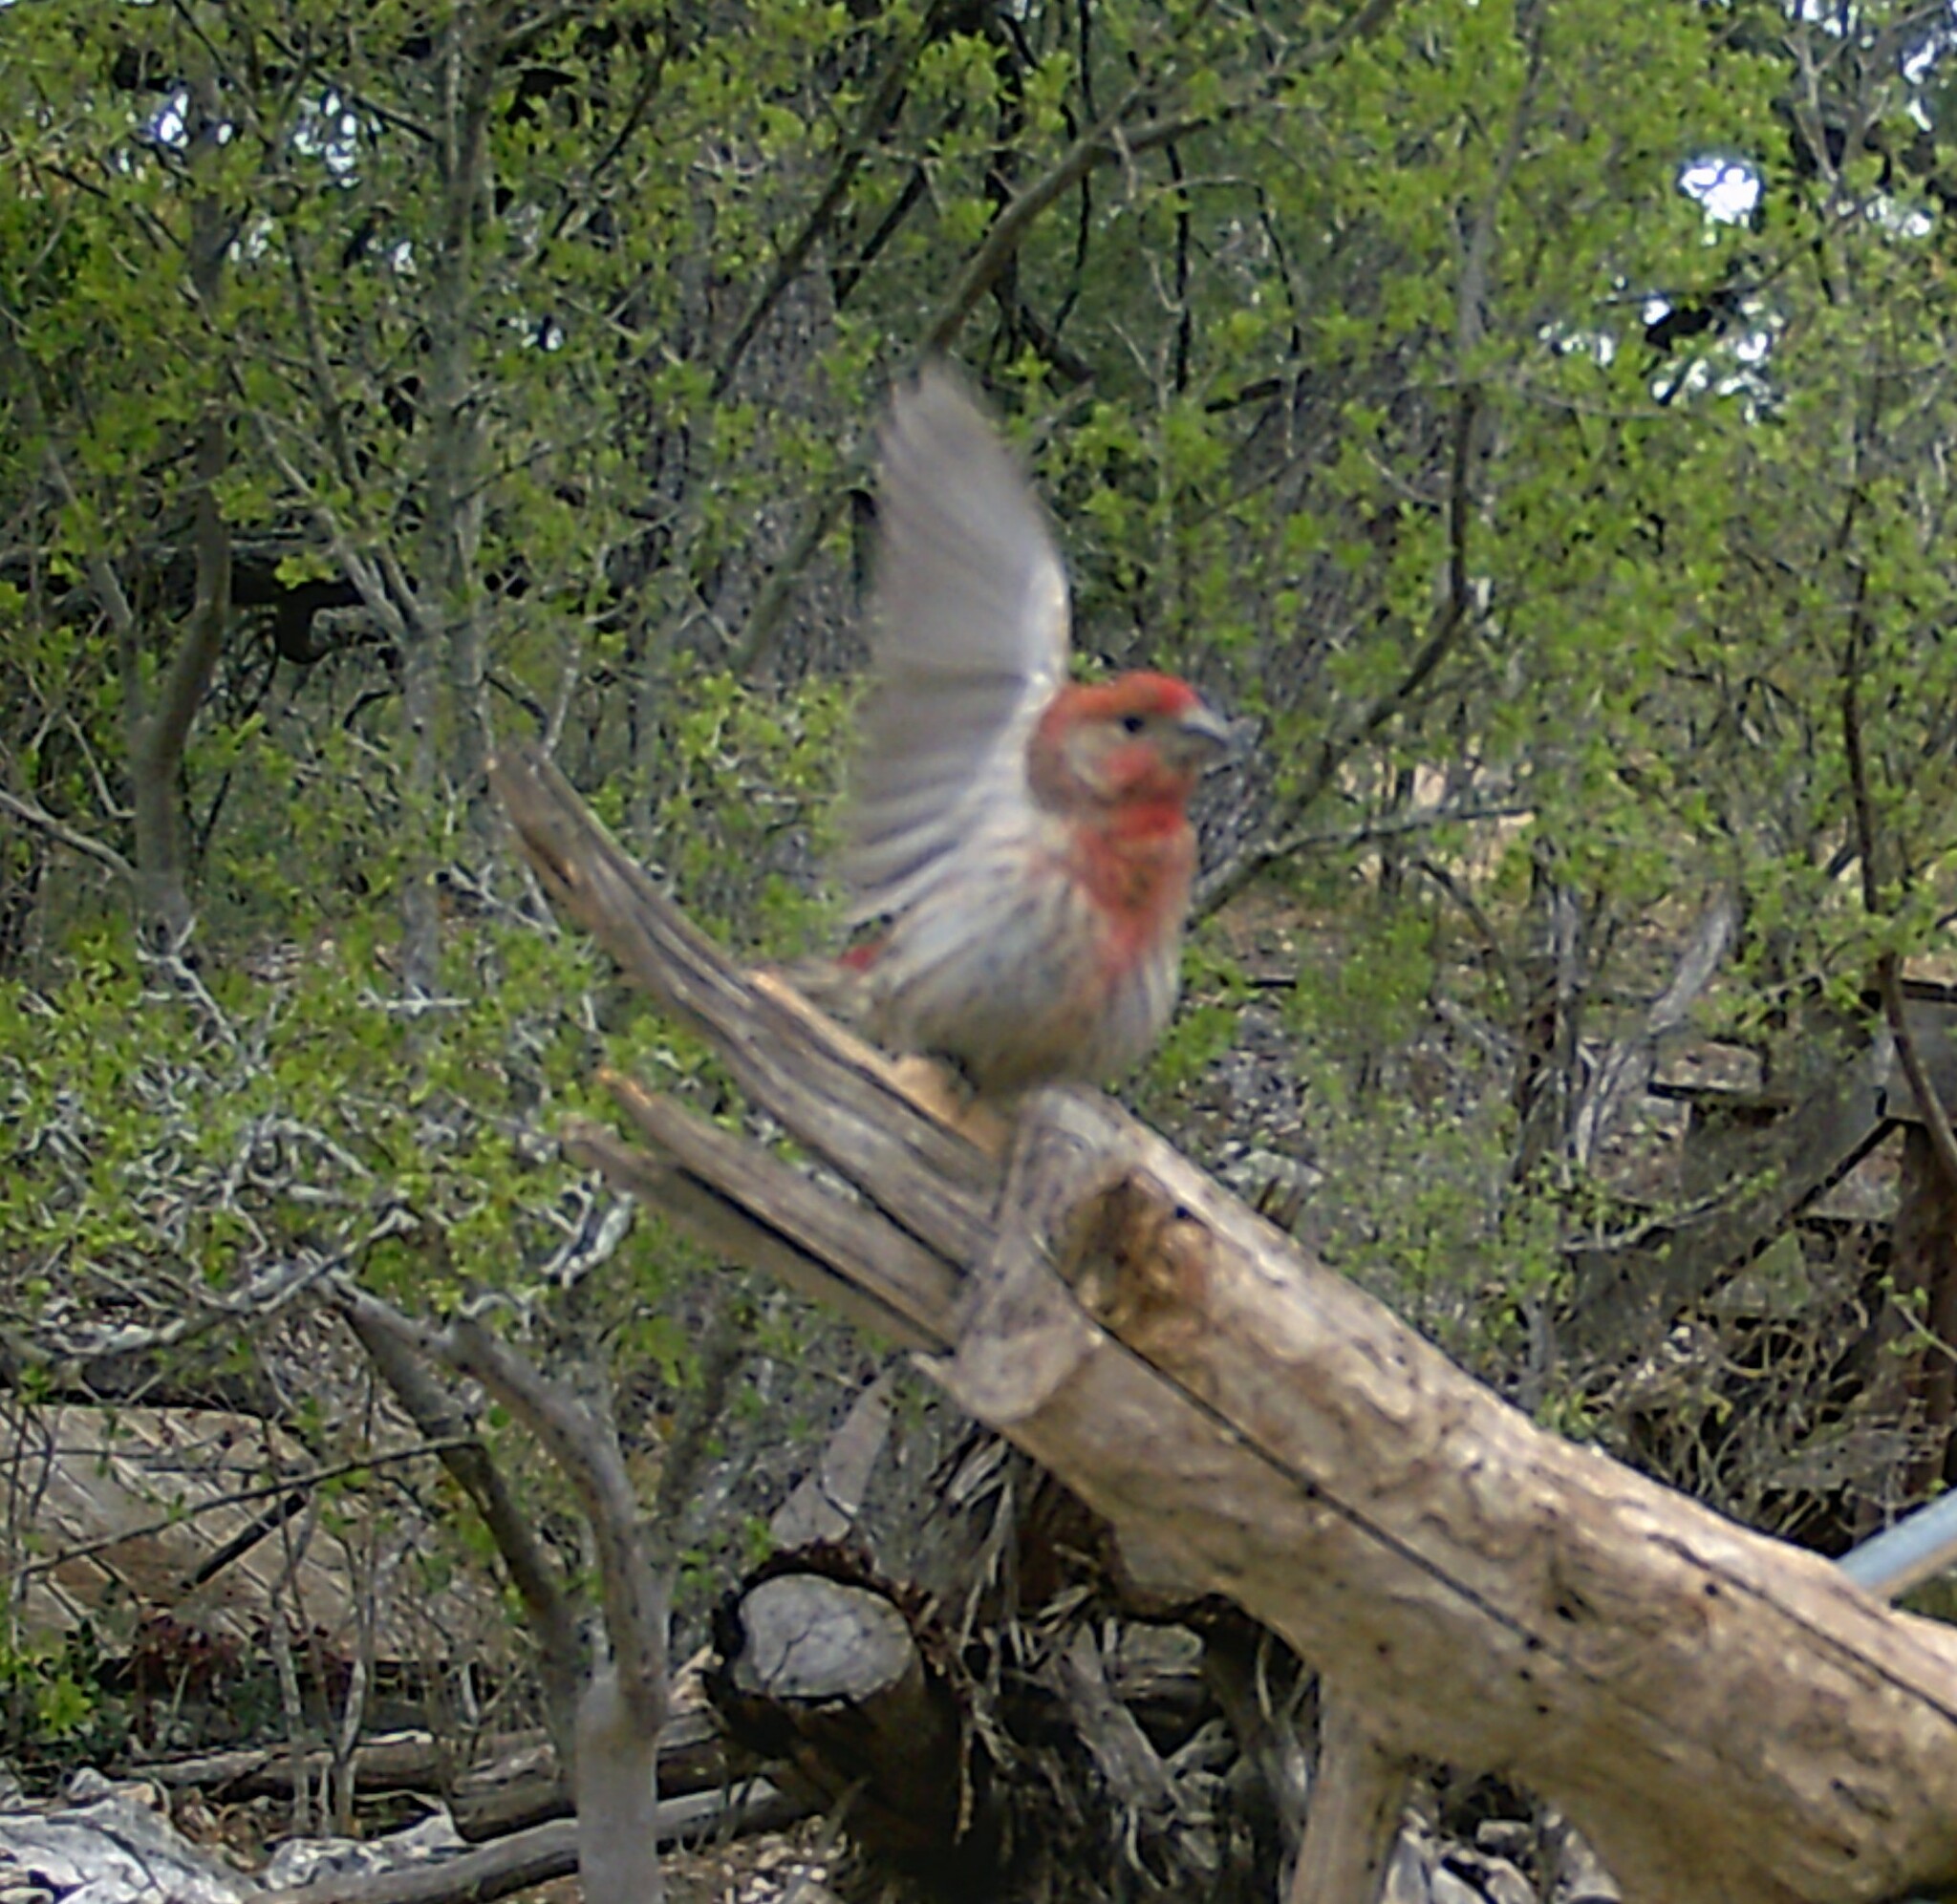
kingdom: Animalia
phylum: Chordata
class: Aves
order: Passeriformes
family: Fringillidae
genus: Haemorhous
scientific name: Haemorhous mexicanus
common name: House finch
